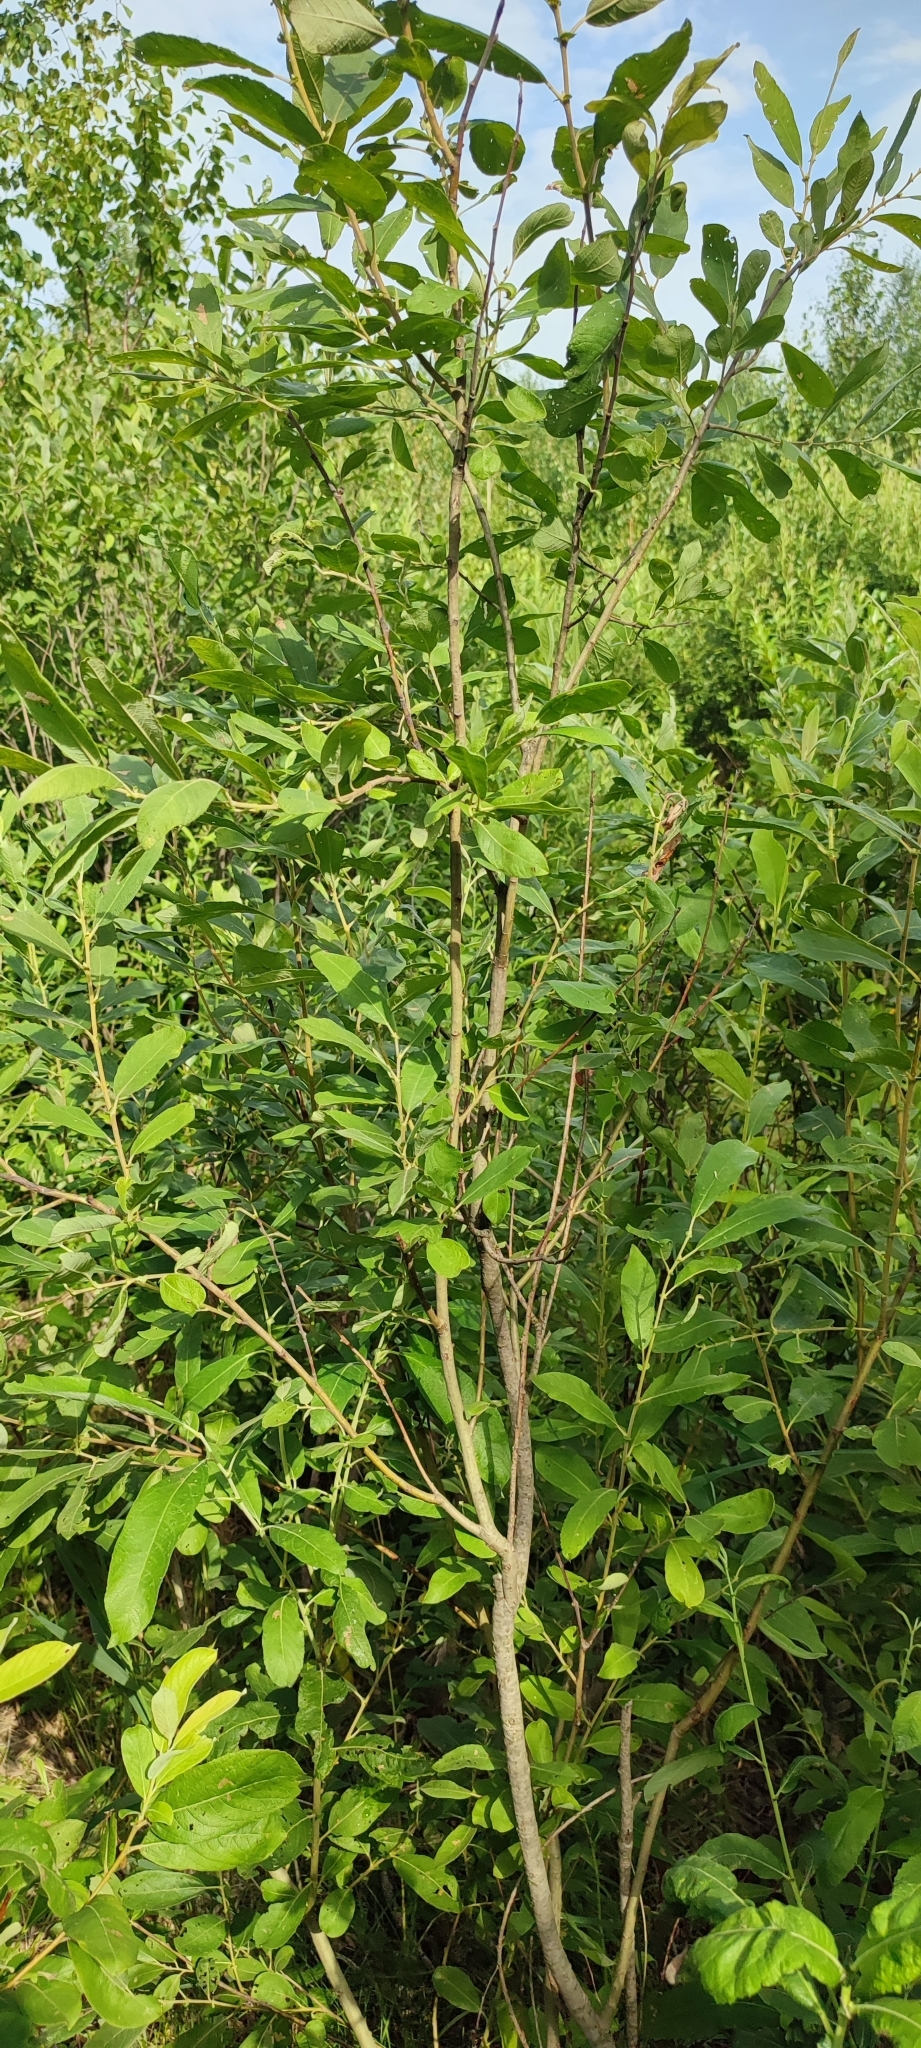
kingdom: Plantae
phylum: Tracheophyta
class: Magnoliopsida
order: Malpighiales
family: Salicaceae
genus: Salix
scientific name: Salix cinerea
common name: Common sallow
